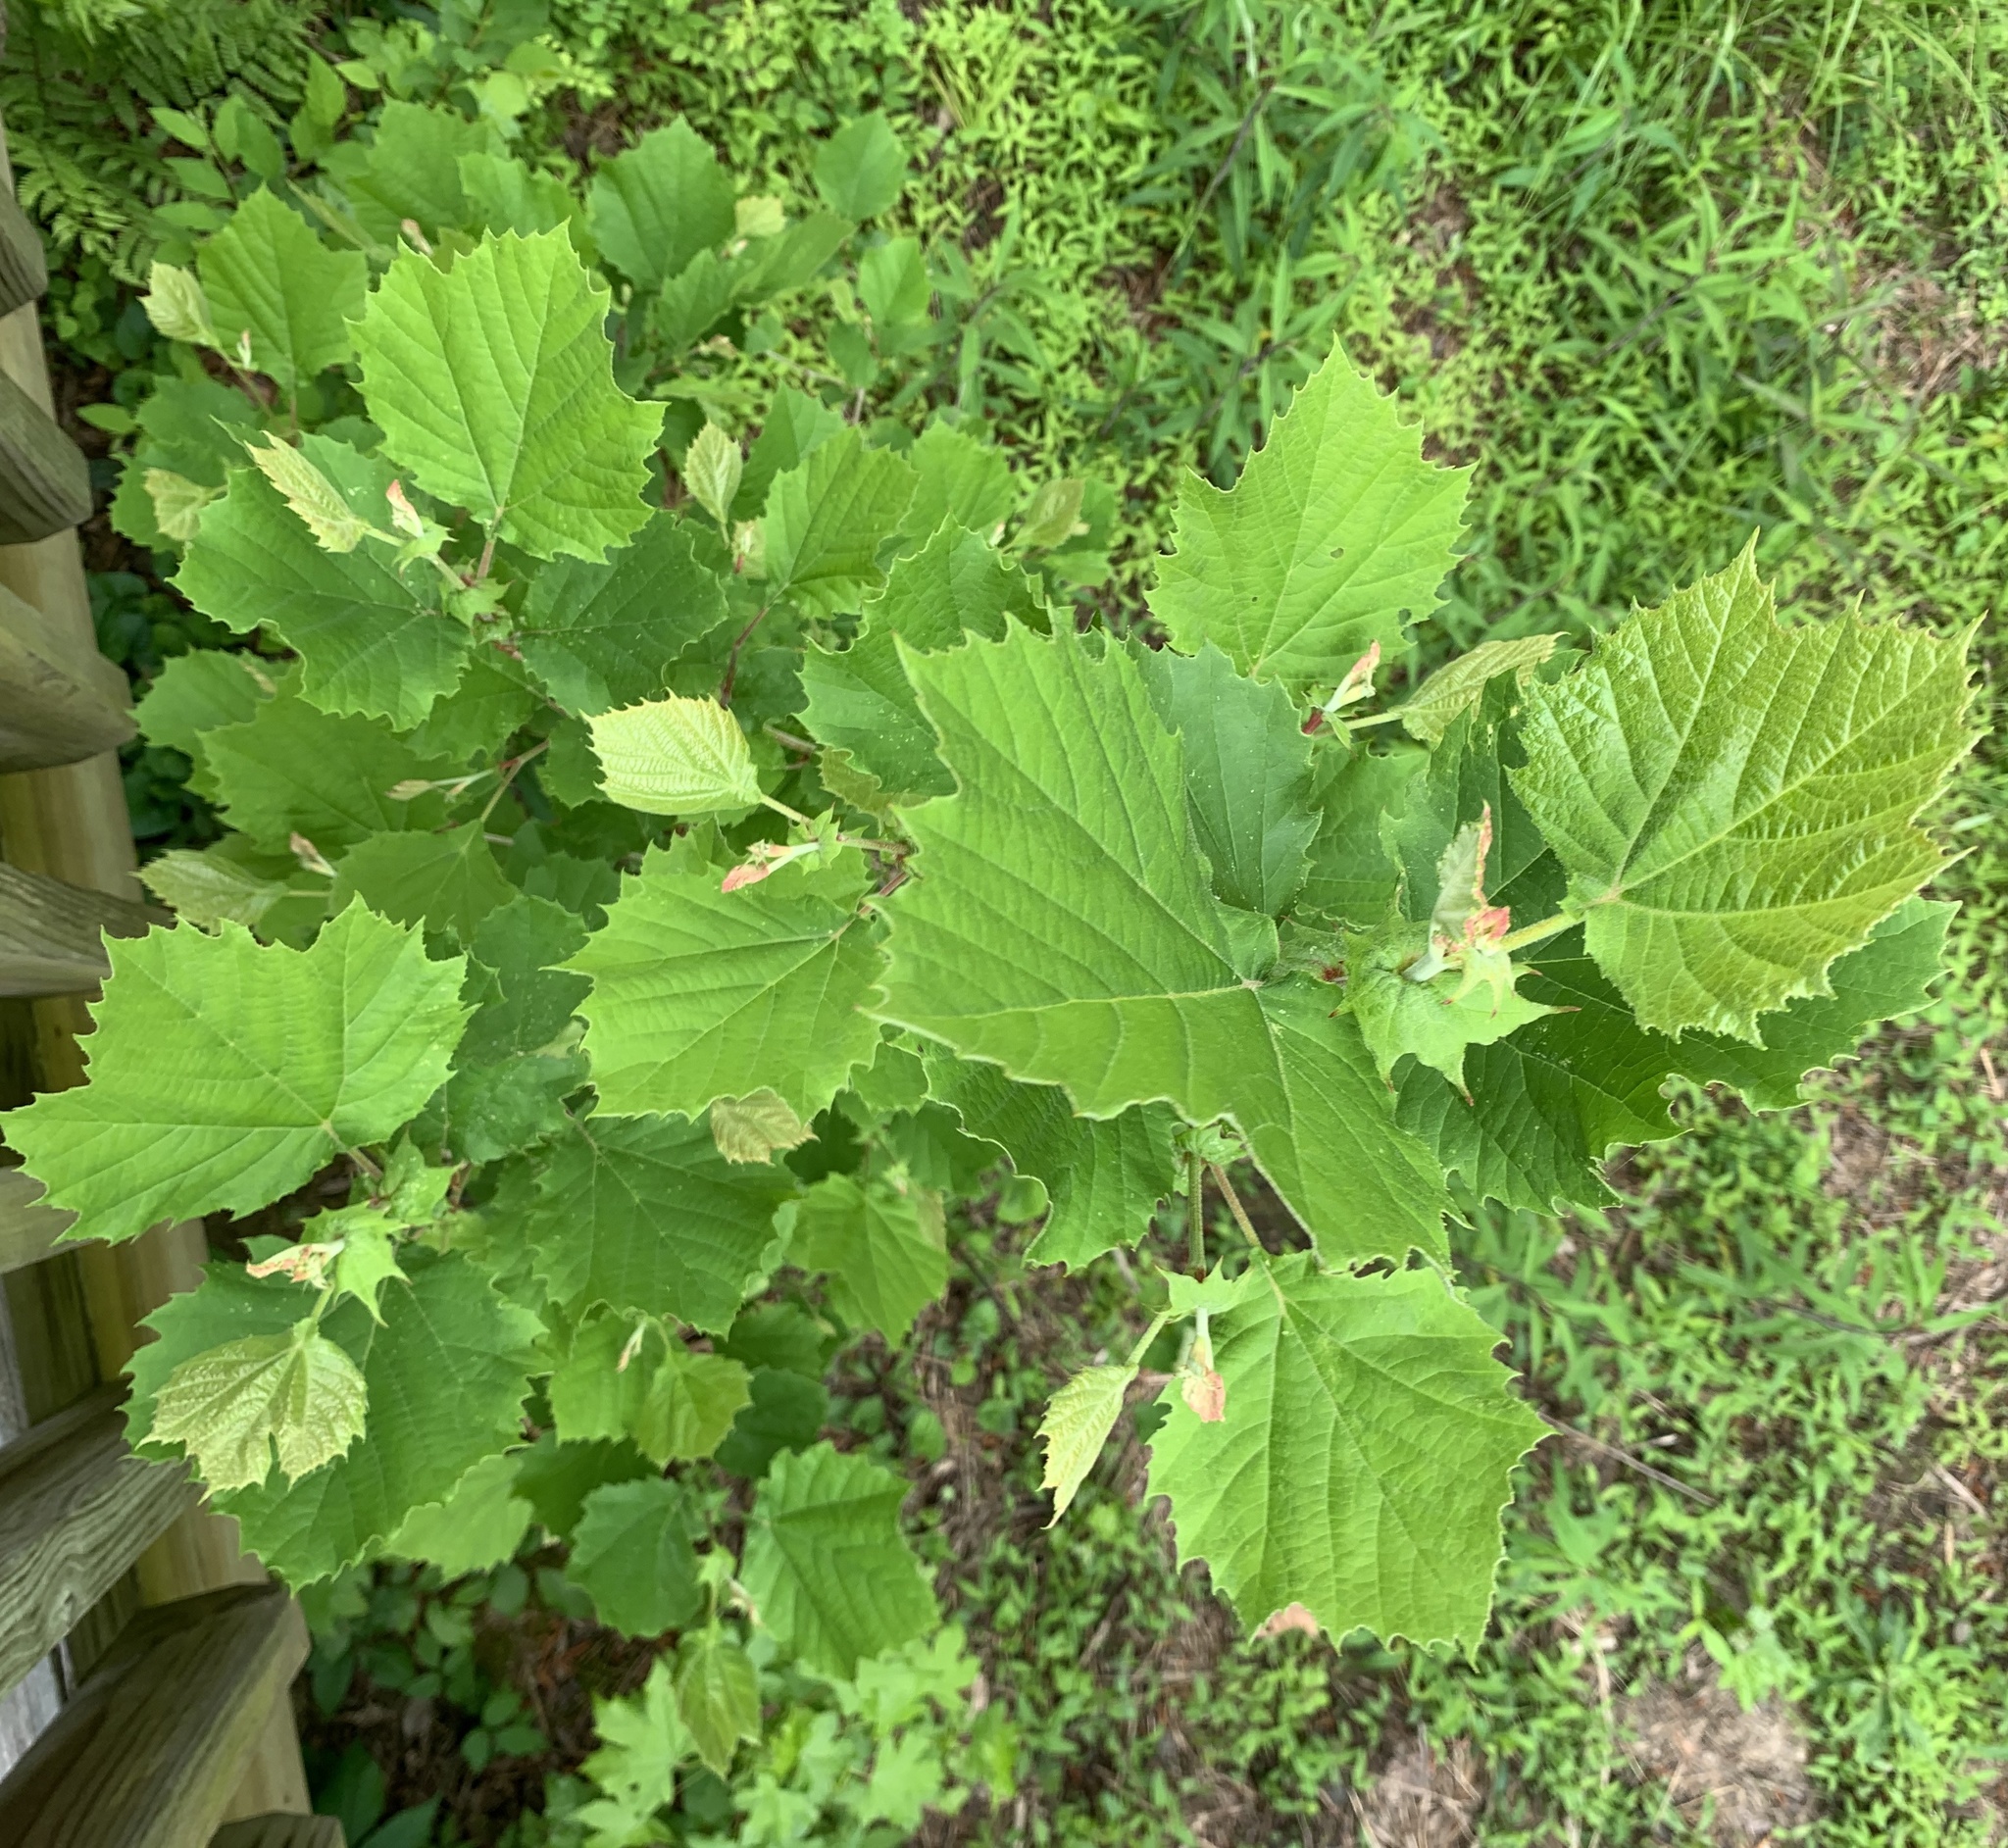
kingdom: Plantae
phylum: Tracheophyta
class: Magnoliopsida
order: Proteales
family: Platanaceae
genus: Platanus
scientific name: Platanus occidentalis
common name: American sycamore
